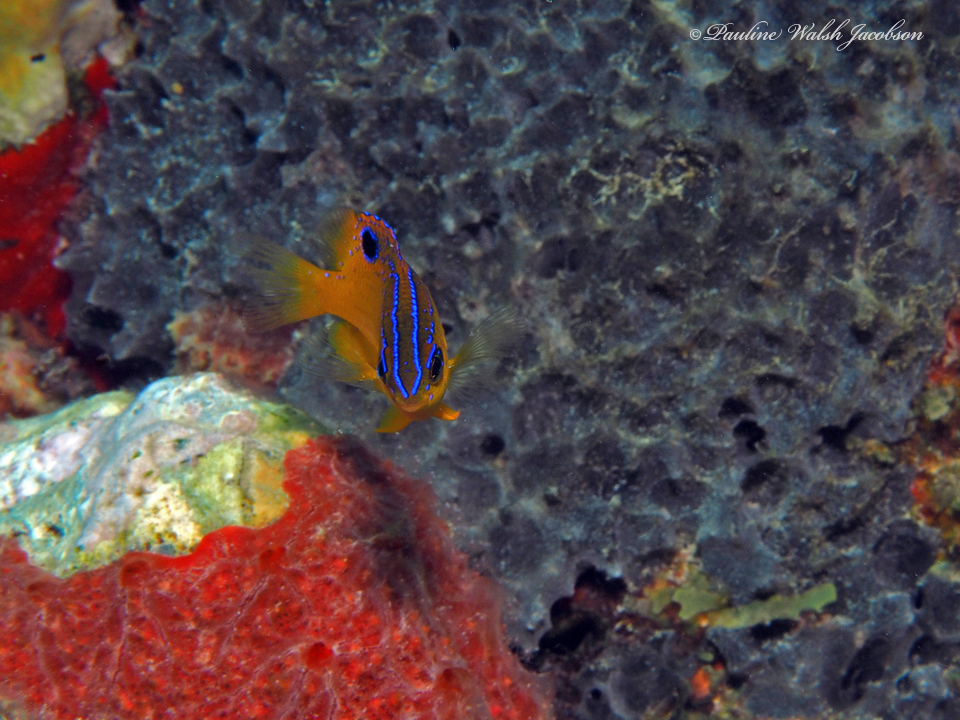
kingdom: Animalia
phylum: Chordata
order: Perciformes
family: Pomacentridae
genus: Stegastes
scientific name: Stegastes diencaeus
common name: Longfin damselfish
